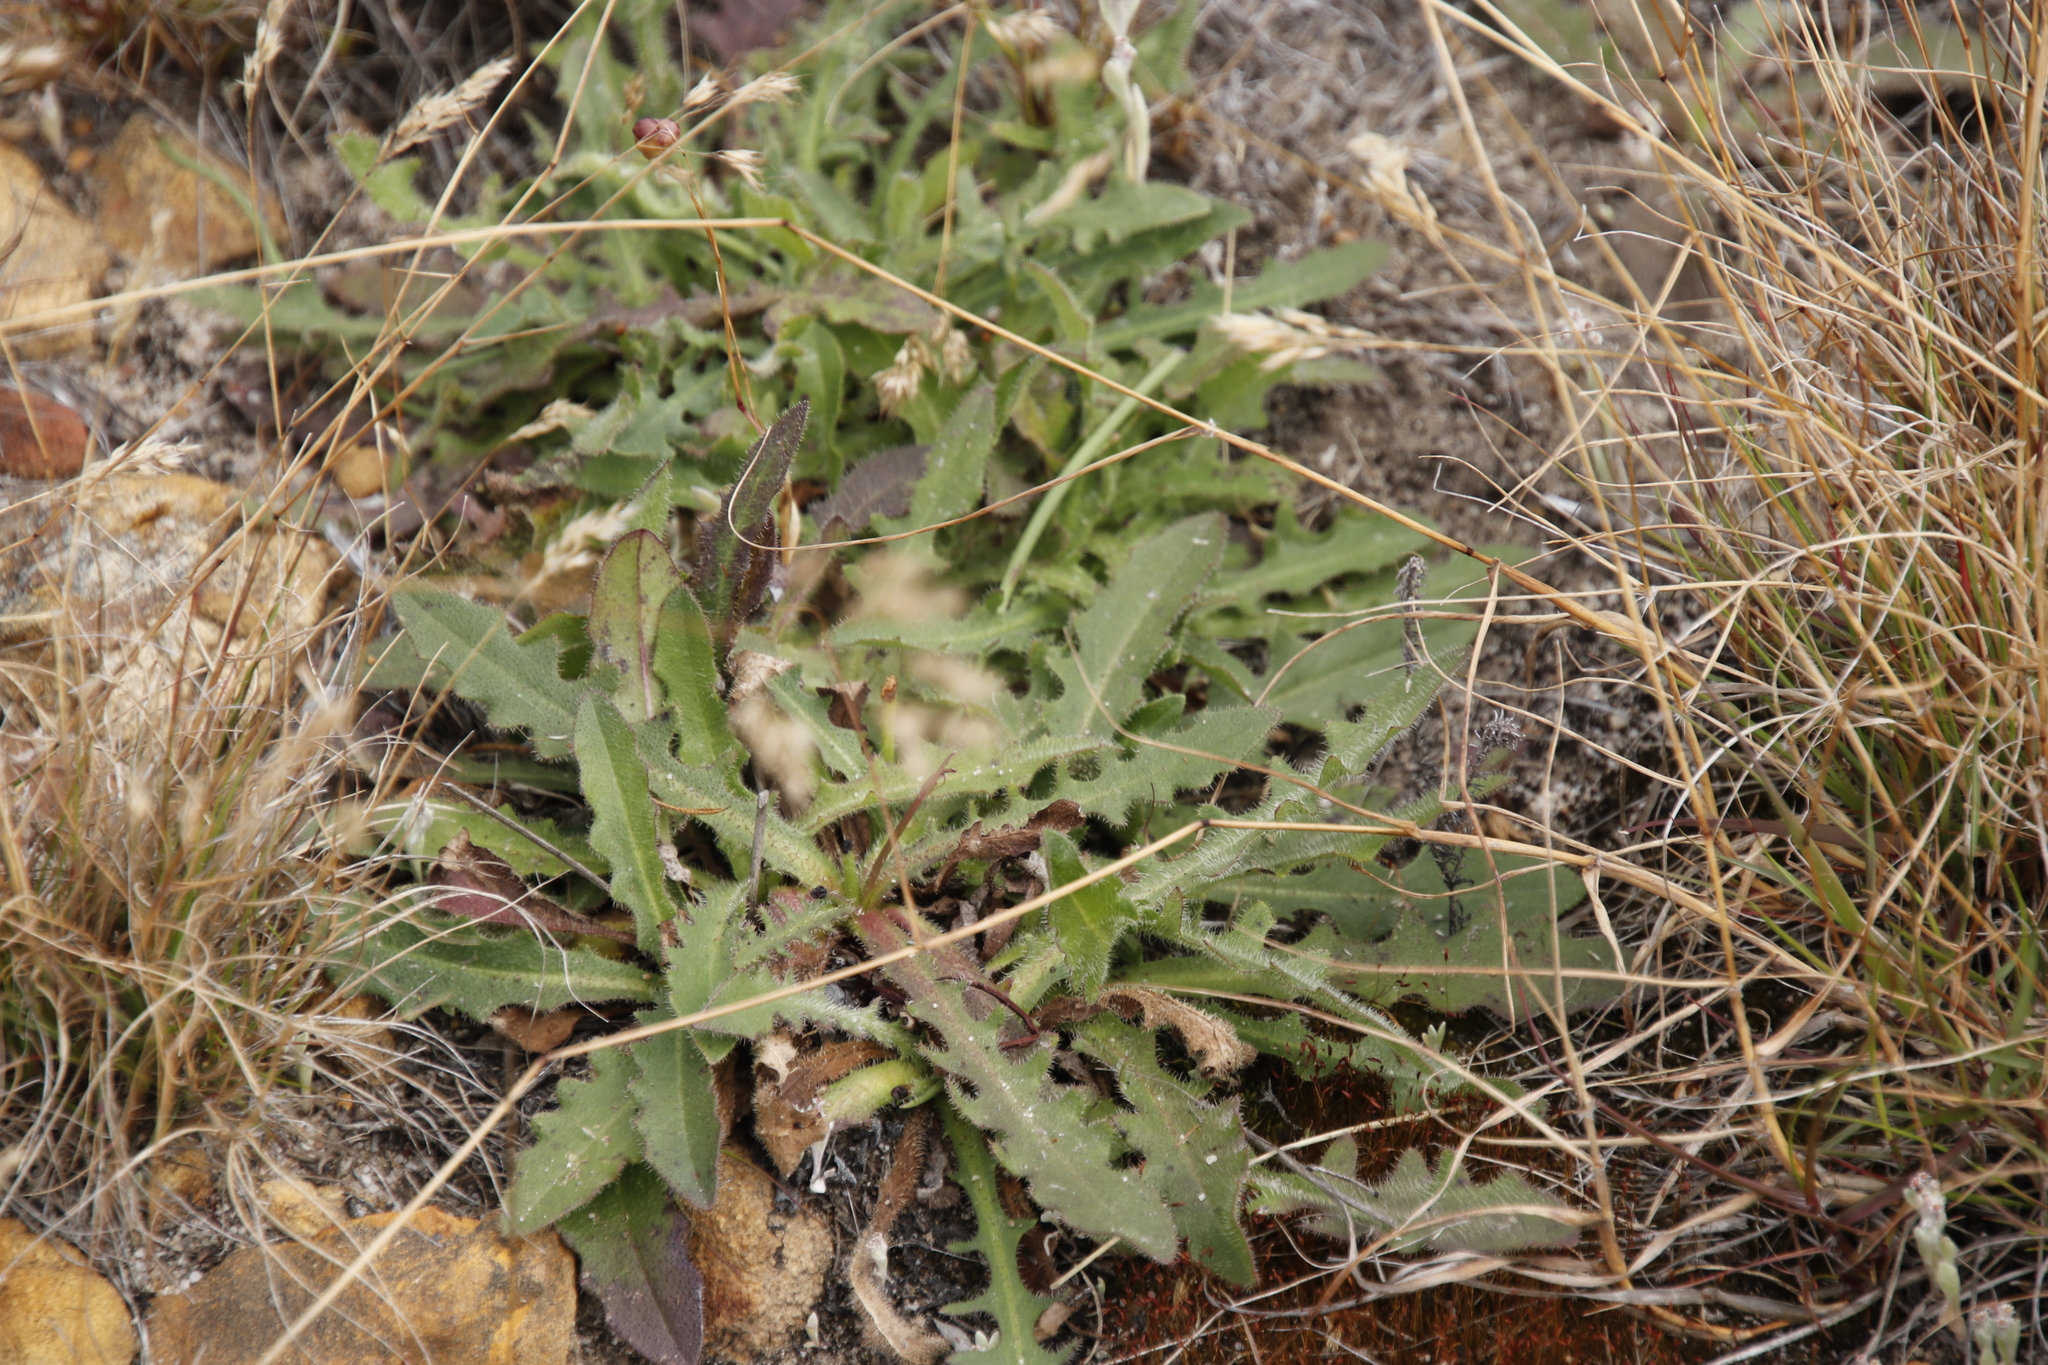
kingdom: Plantae
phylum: Tracheophyta
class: Magnoliopsida
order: Asterales
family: Asteraceae
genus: Hypochaeris
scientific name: Hypochaeris radicata
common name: Flatweed
